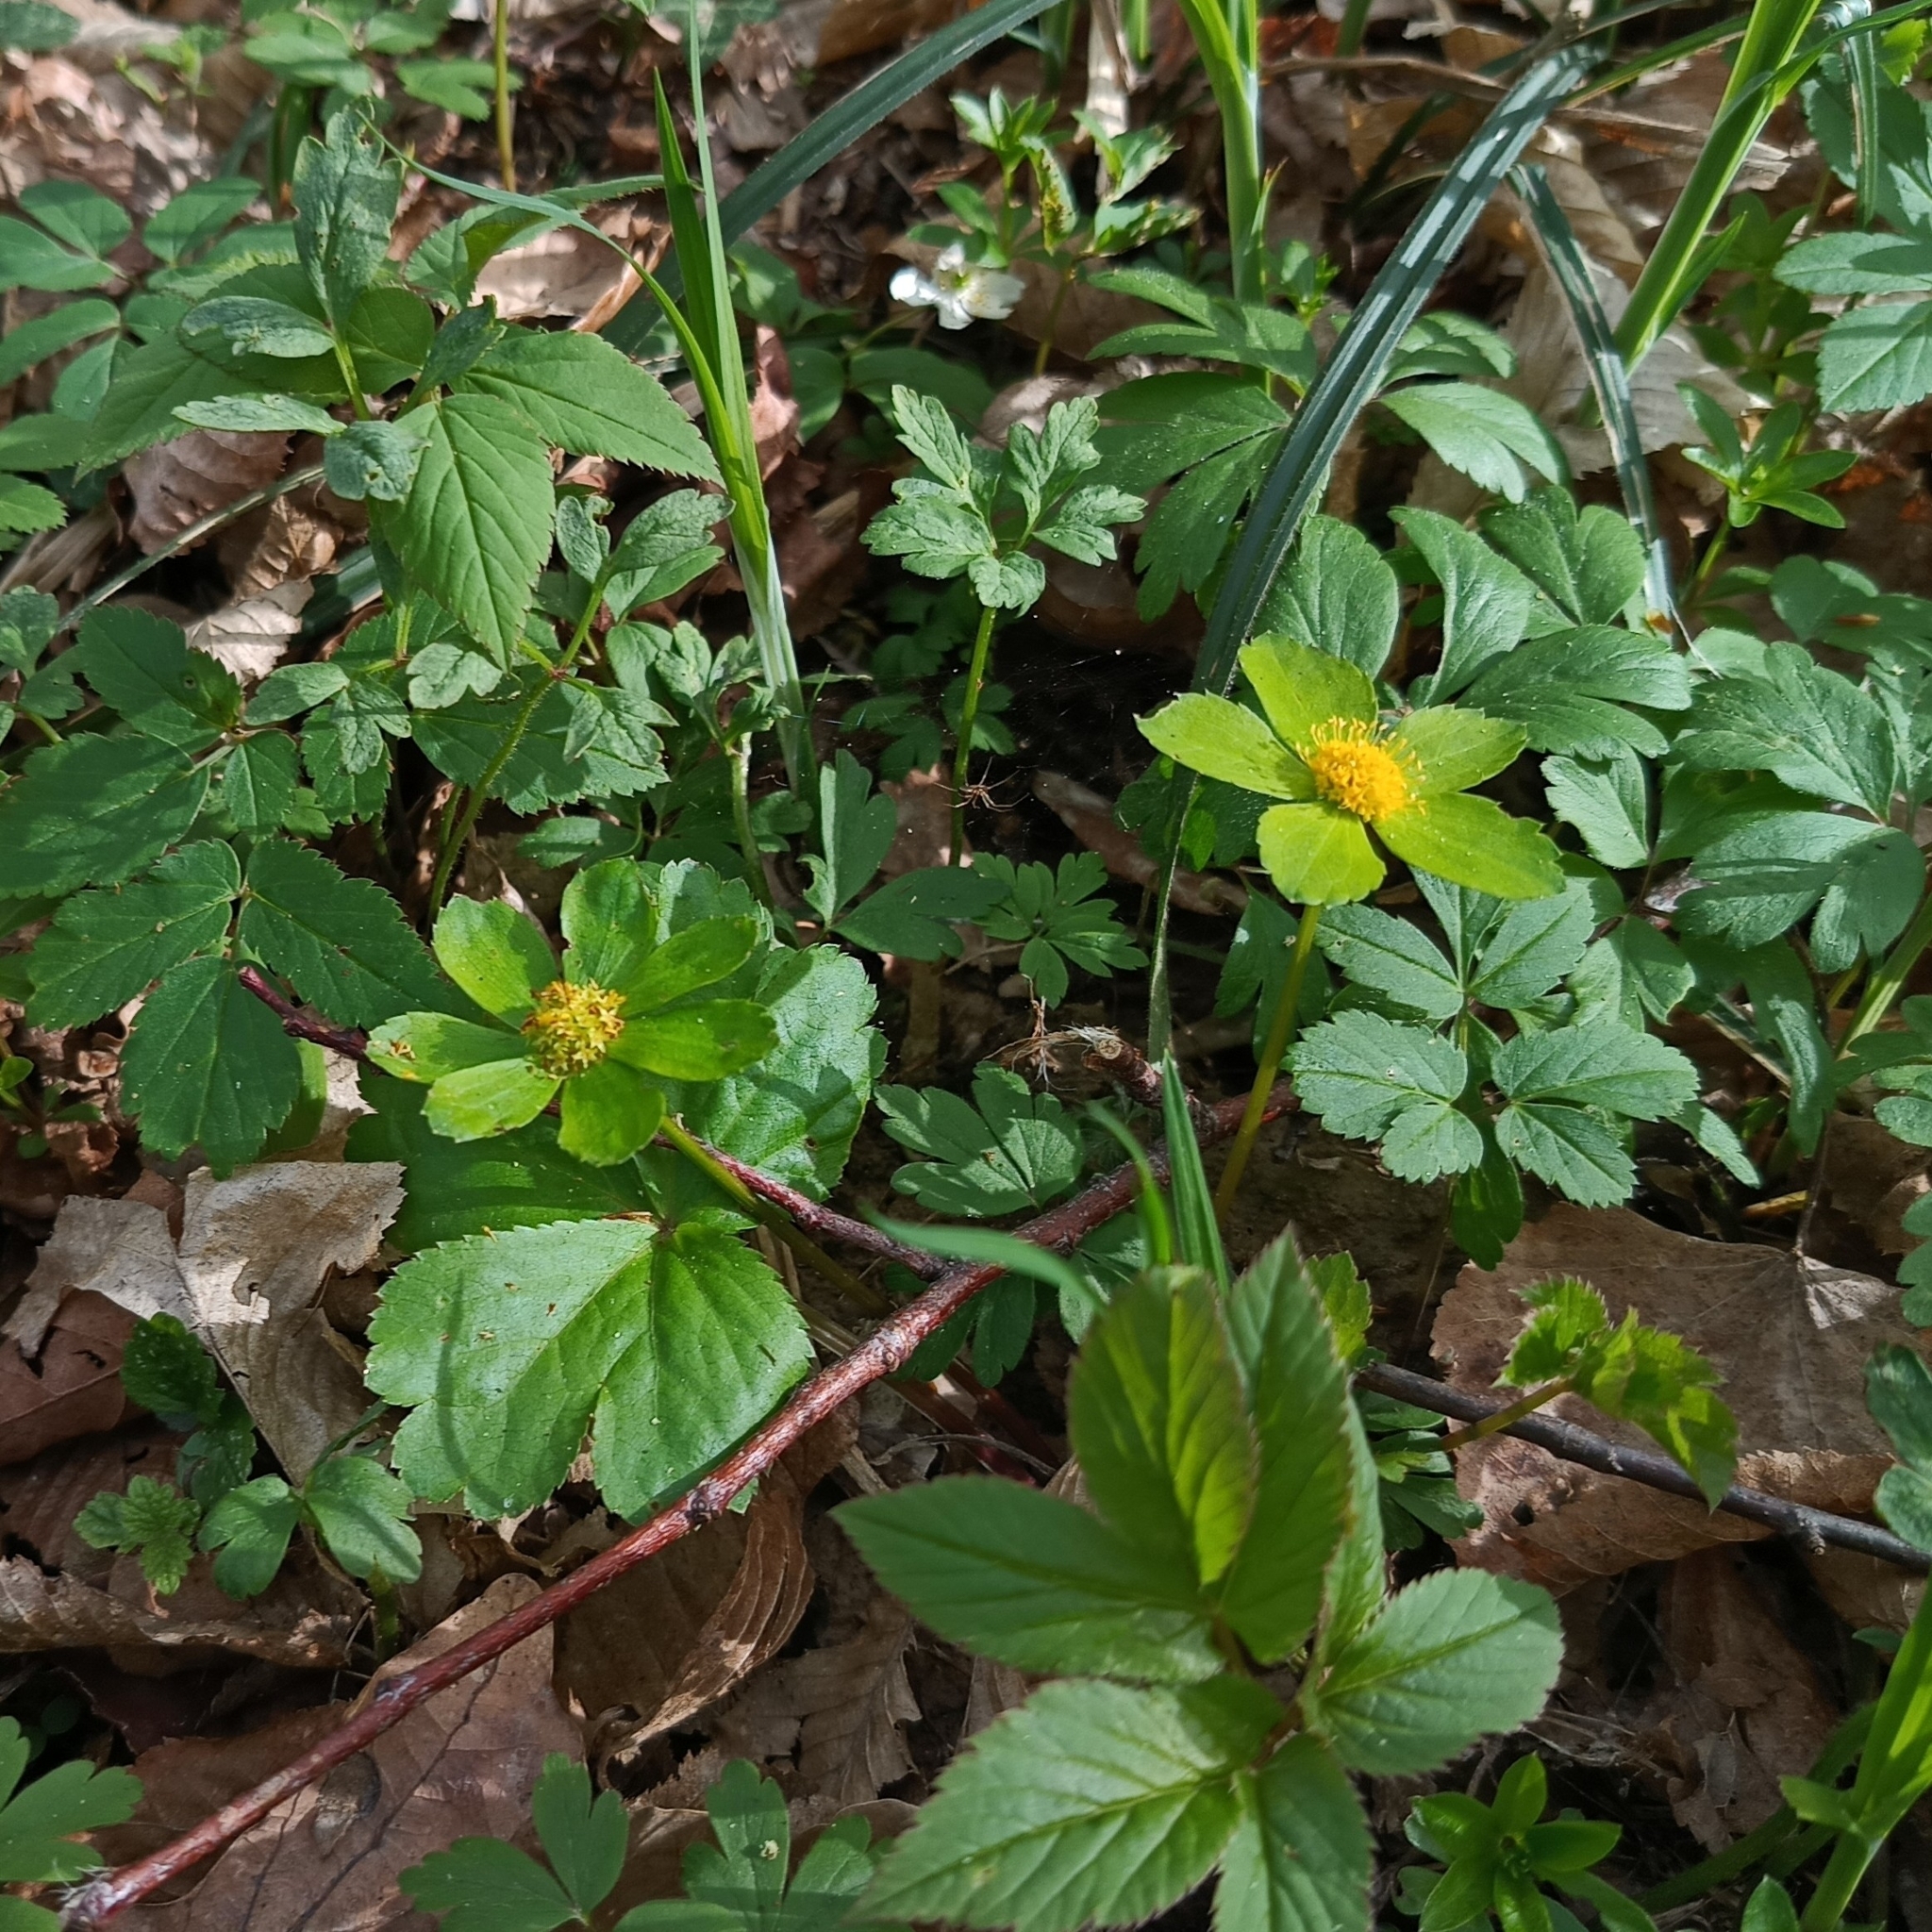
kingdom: Plantae
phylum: Tracheophyta
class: Magnoliopsida
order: Apiales
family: Apiaceae
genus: Sanicula
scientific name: Sanicula epipactis
